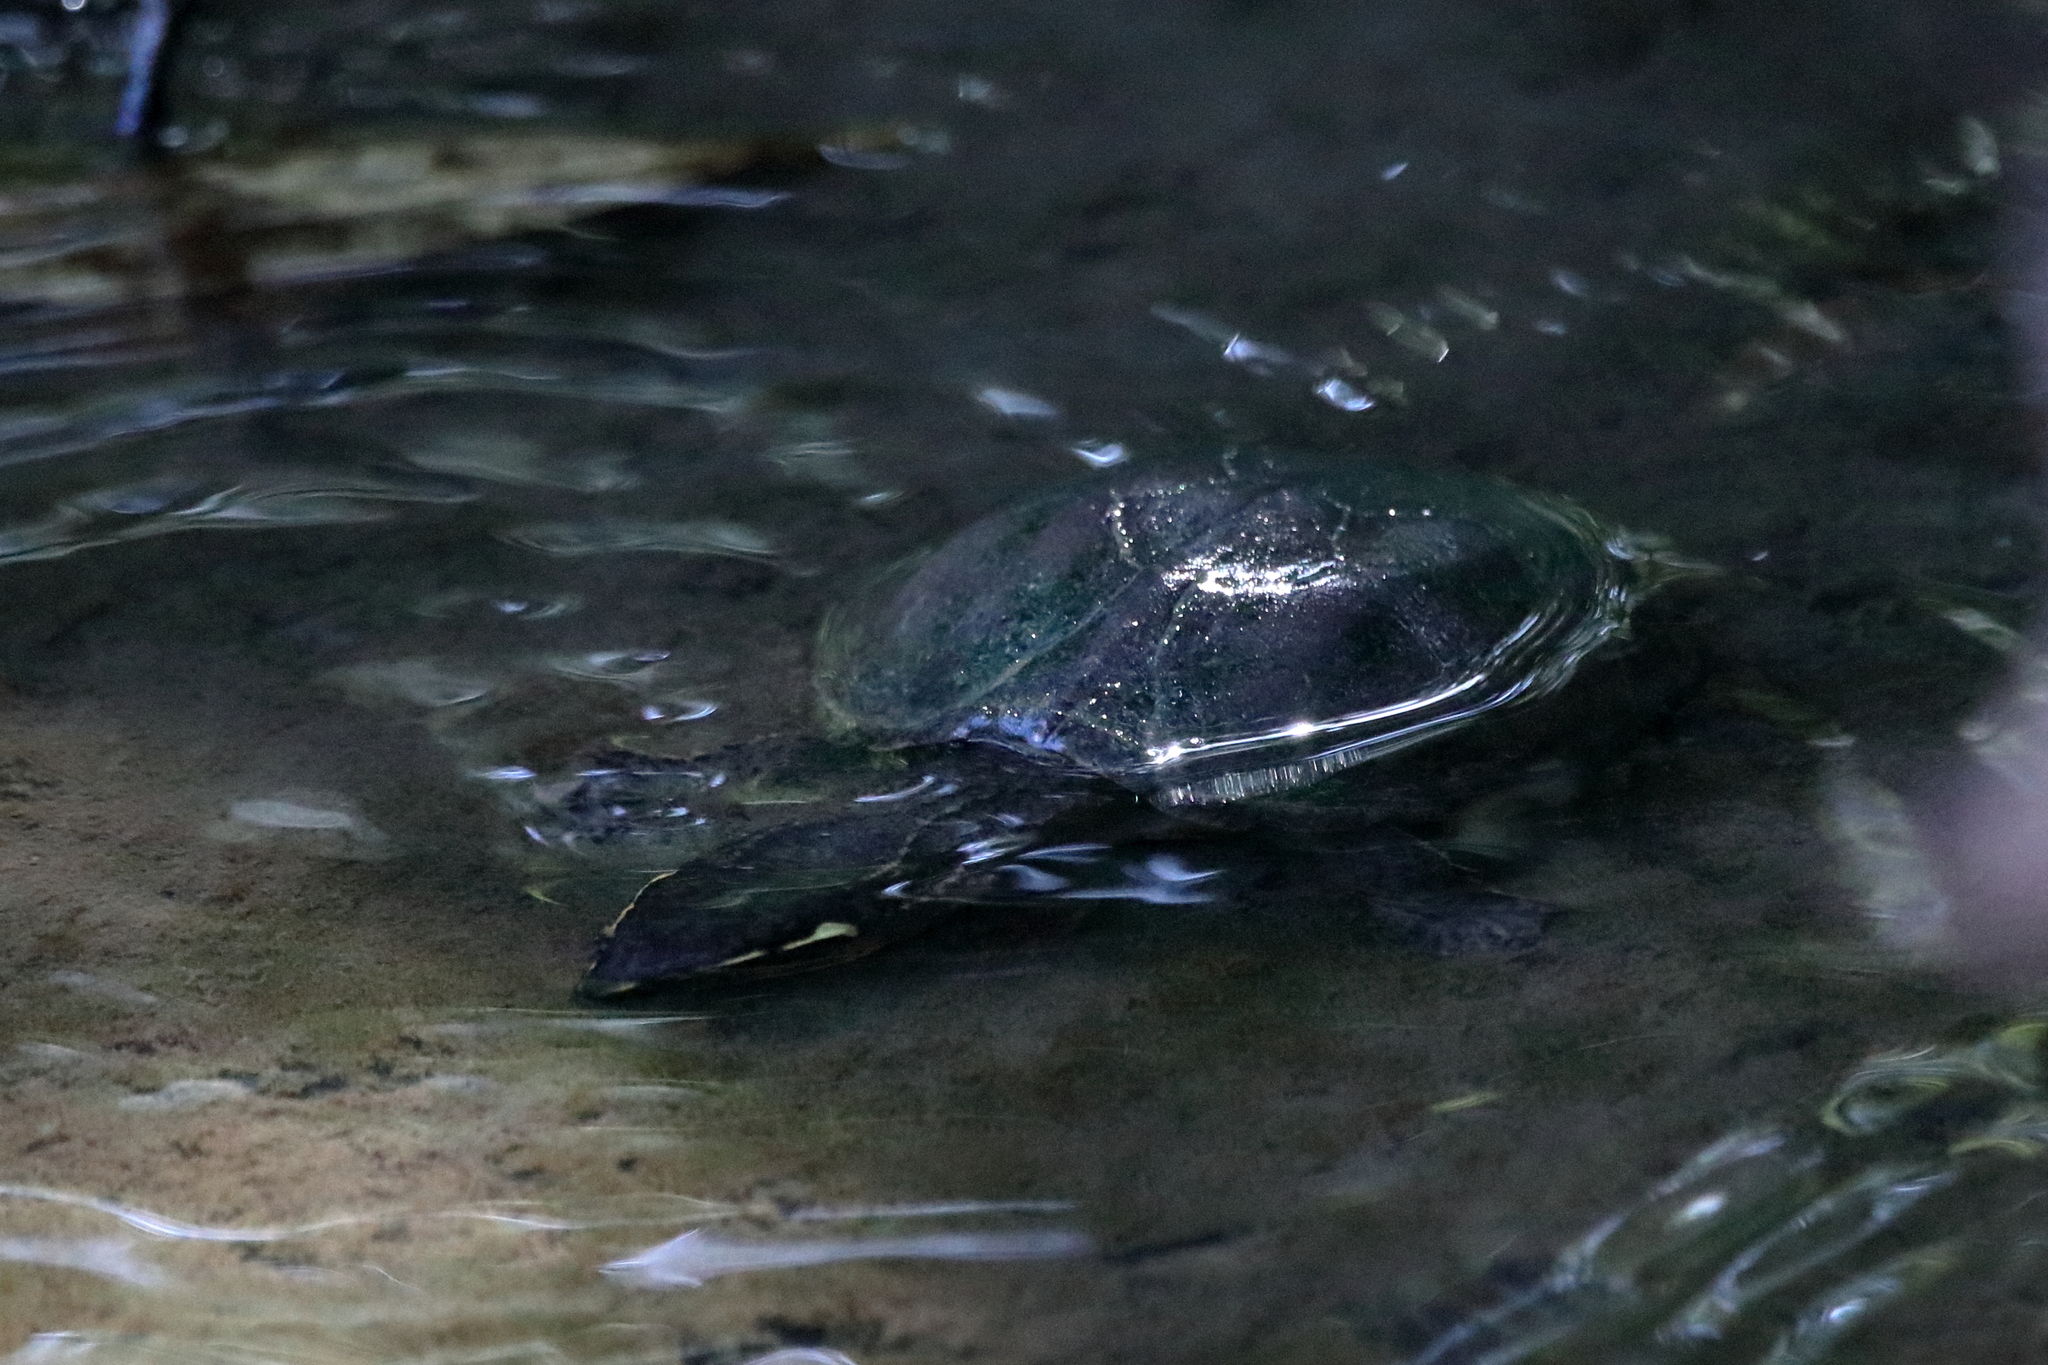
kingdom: Animalia
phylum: Chordata
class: Testudines
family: Kinosternidae
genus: Sternotherus
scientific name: Sternotherus odoratus
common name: Common musk turtle
